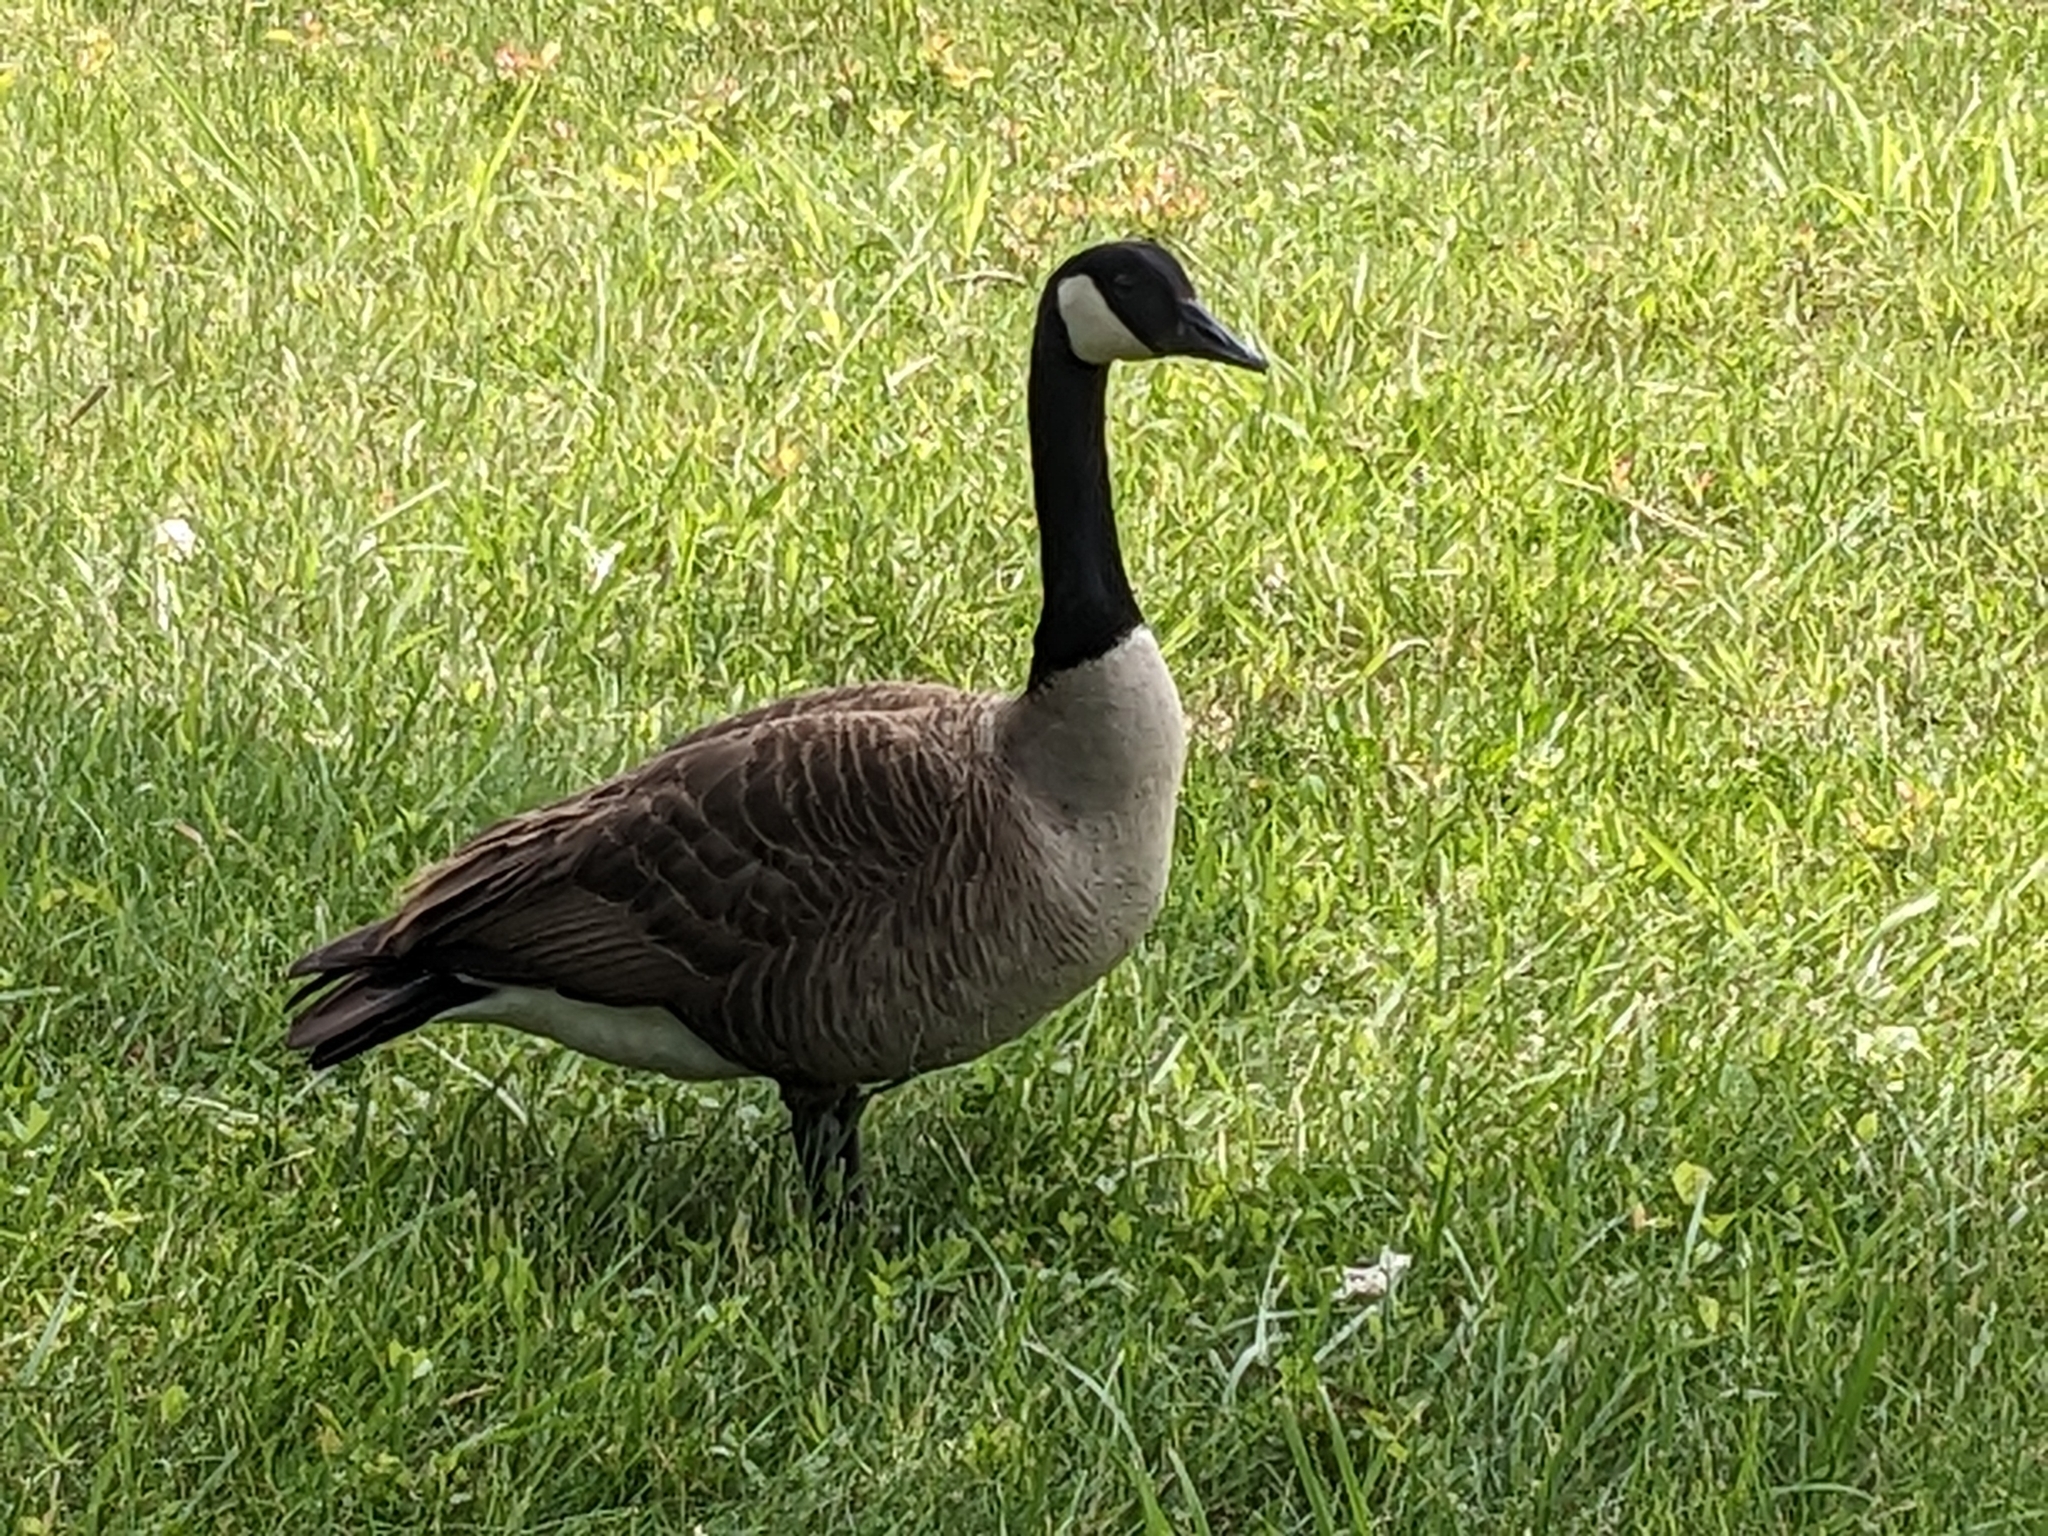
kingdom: Animalia
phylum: Chordata
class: Aves
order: Anseriformes
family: Anatidae
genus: Branta
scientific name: Branta canadensis
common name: Canada goose
